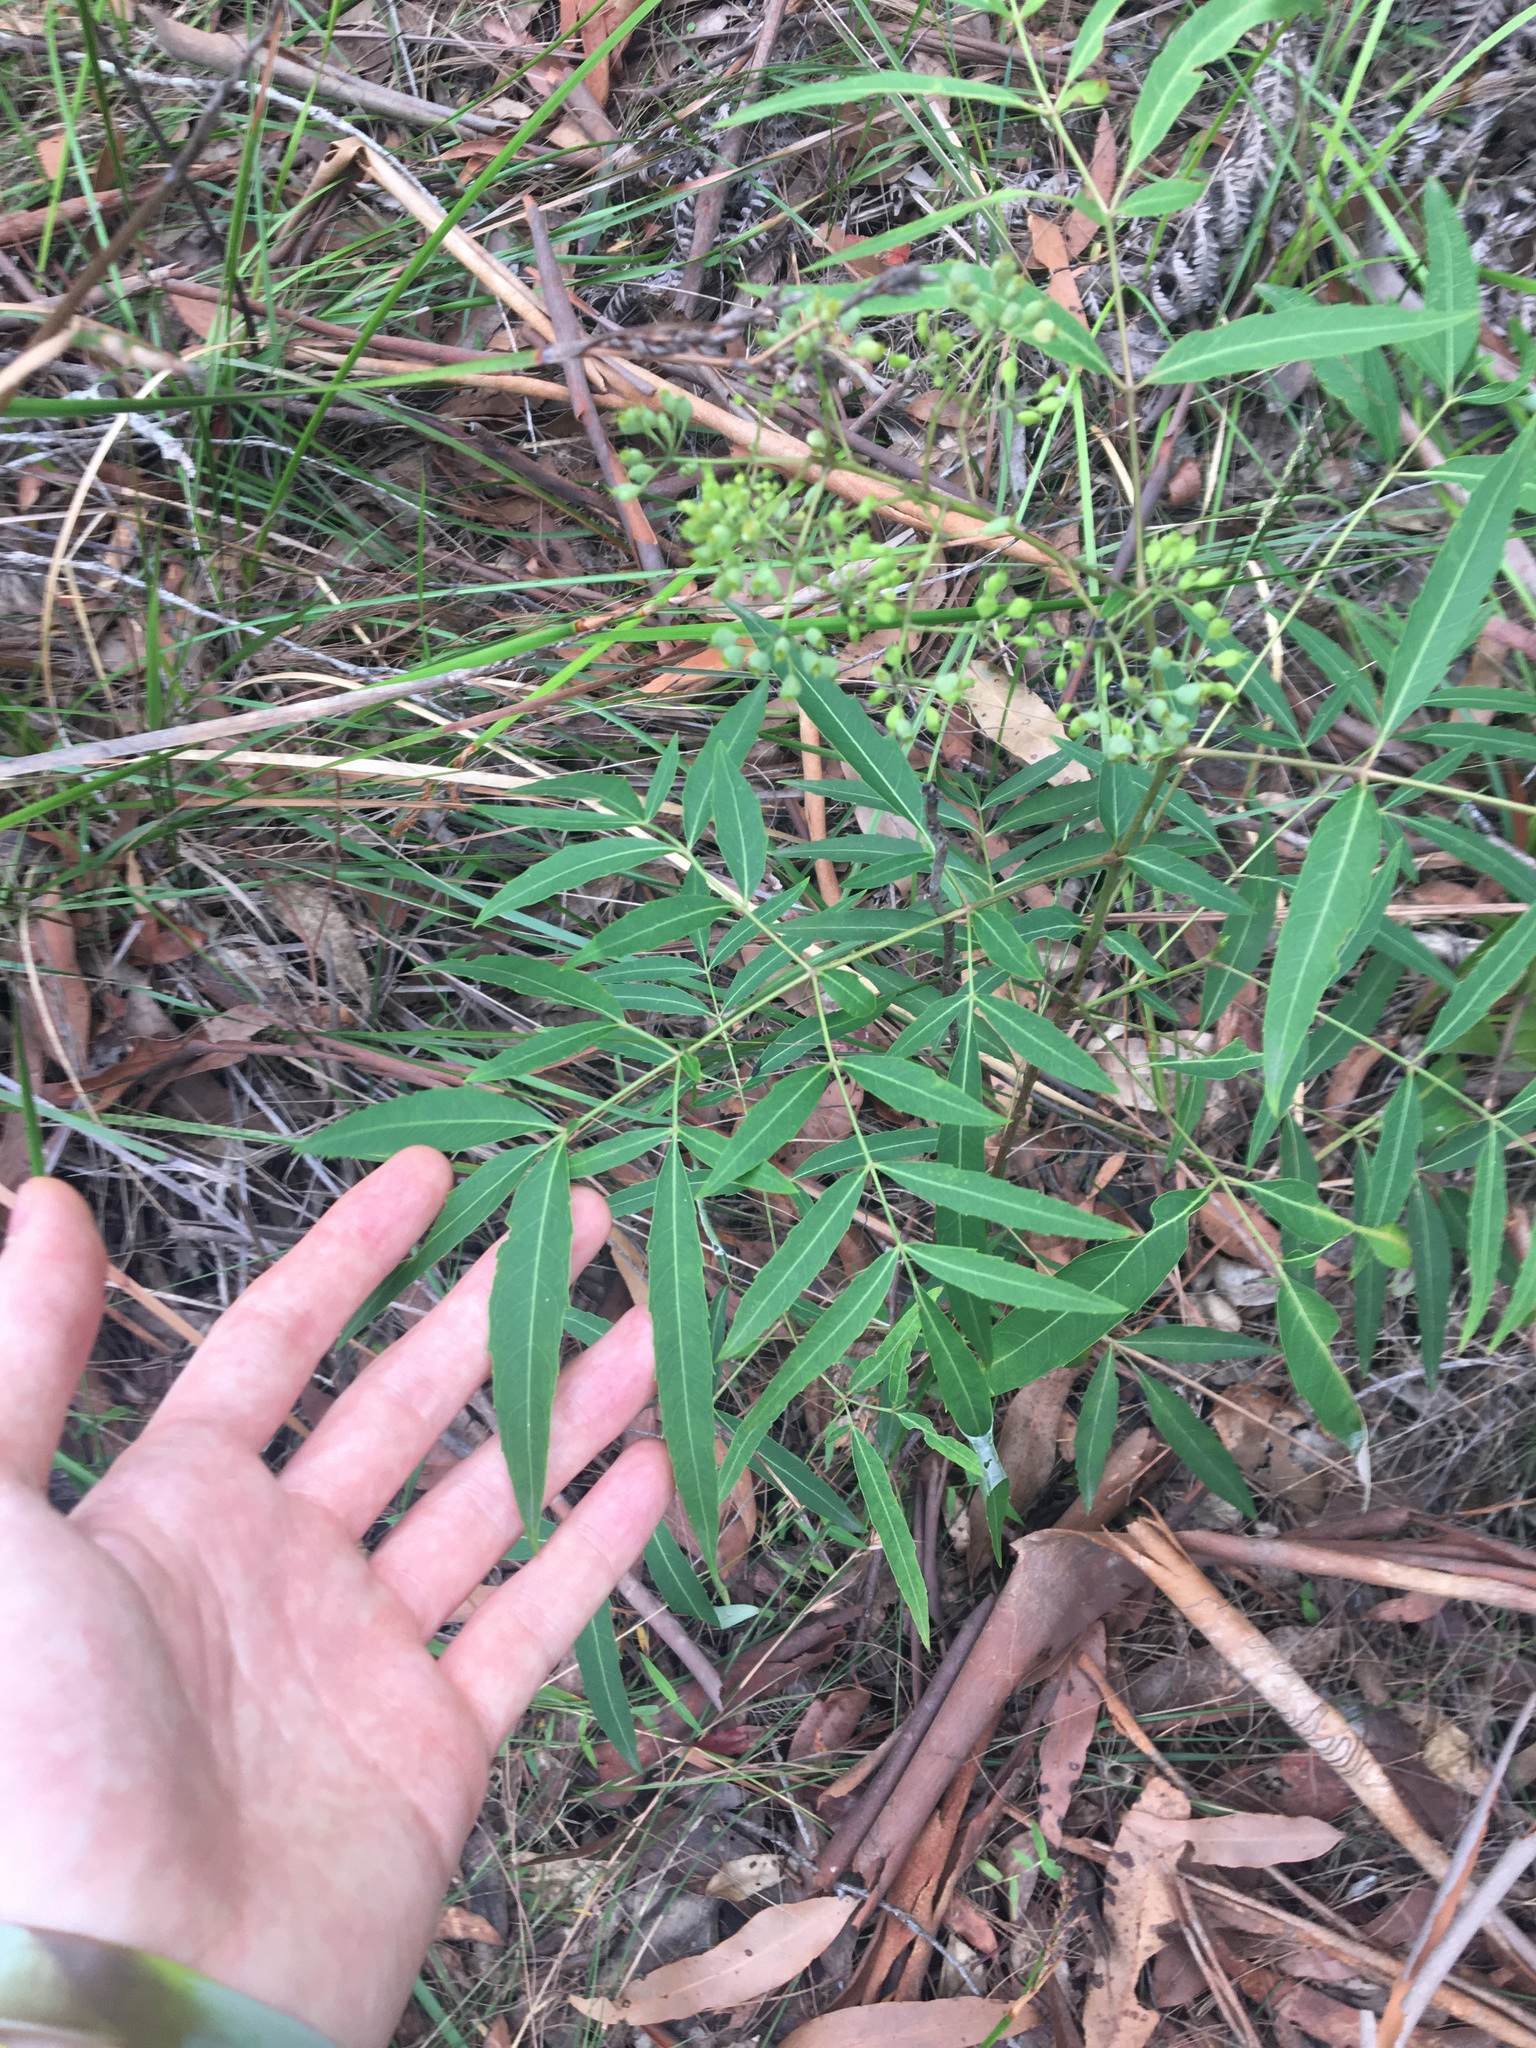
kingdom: Plantae
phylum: Tracheophyta
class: Magnoliopsida
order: Apiales
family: Araliaceae
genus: Polyscias
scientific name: Polyscias sambucifolia
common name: Elderberry-ash
